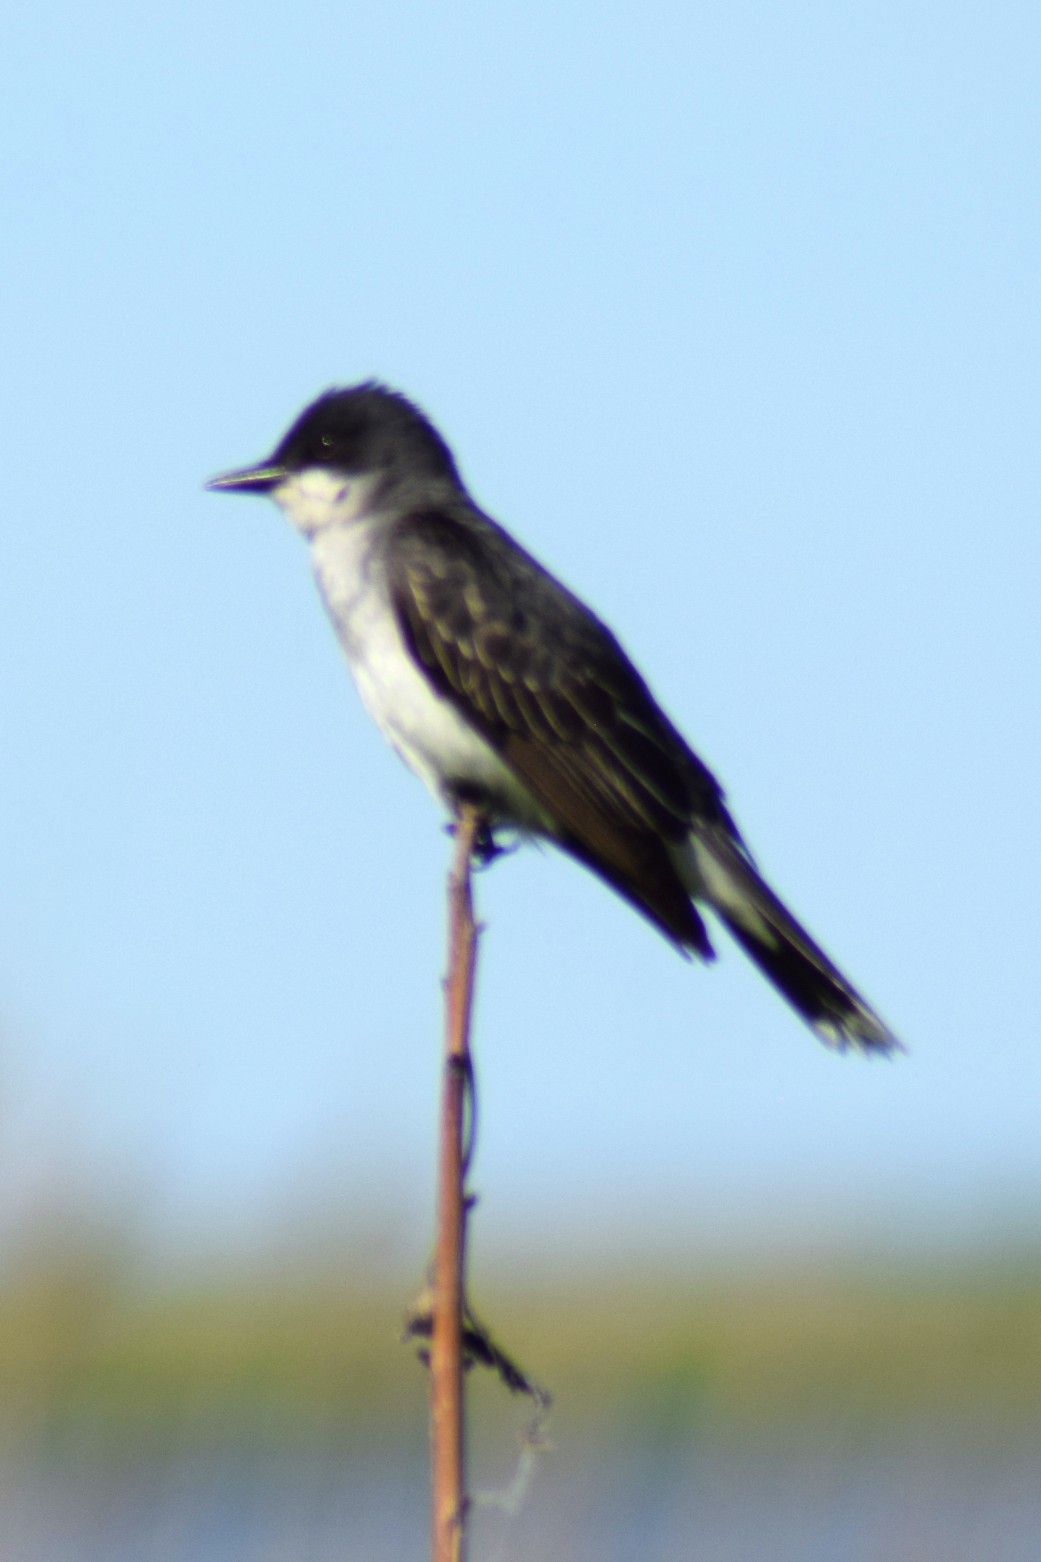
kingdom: Animalia
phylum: Chordata
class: Aves
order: Passeriformes
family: Tyrannidae
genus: Tyrannus
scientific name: Tyrannus tyrannus
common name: Eastern kingbird
